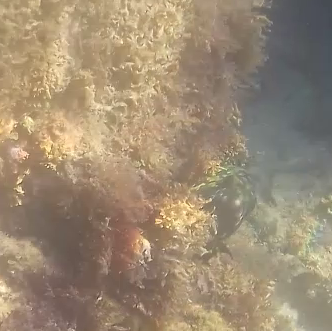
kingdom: Animalia
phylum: Chordata
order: Perciformes
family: Serranidae
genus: Epinephelus
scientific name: Epinephelus marginatus
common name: Dusky grouper
